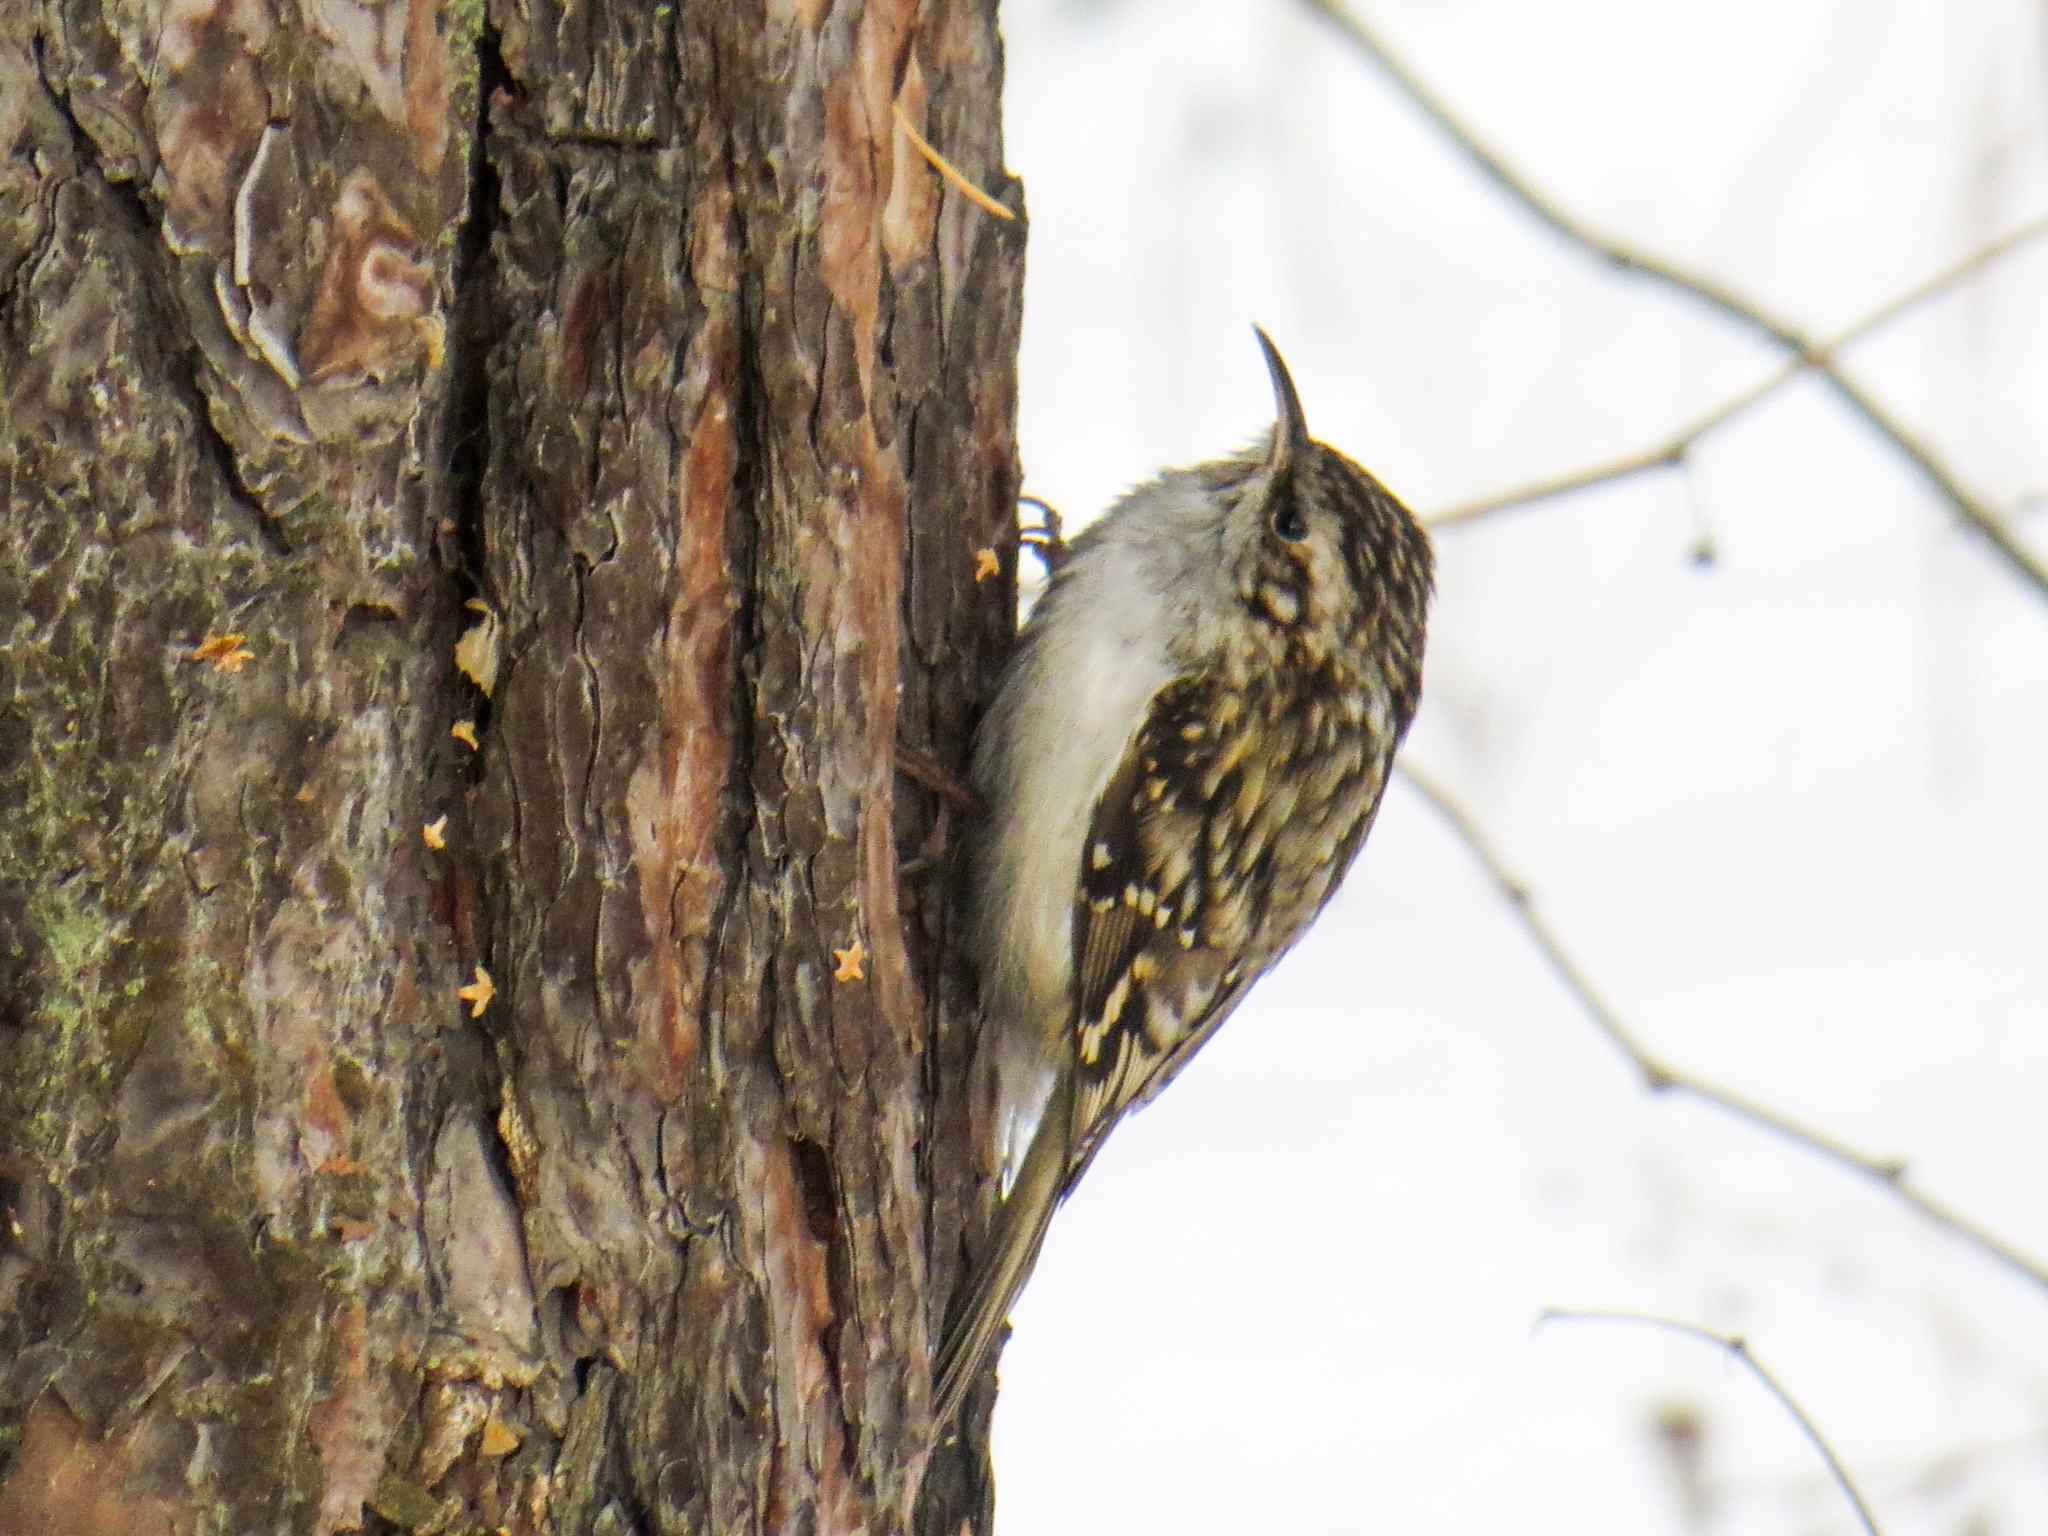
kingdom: Animalia
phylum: Chordata
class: Aves
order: Passeriformes
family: Certhiidae
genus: Certhia
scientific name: Certhia familiaris
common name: Eurasian treecreeper
